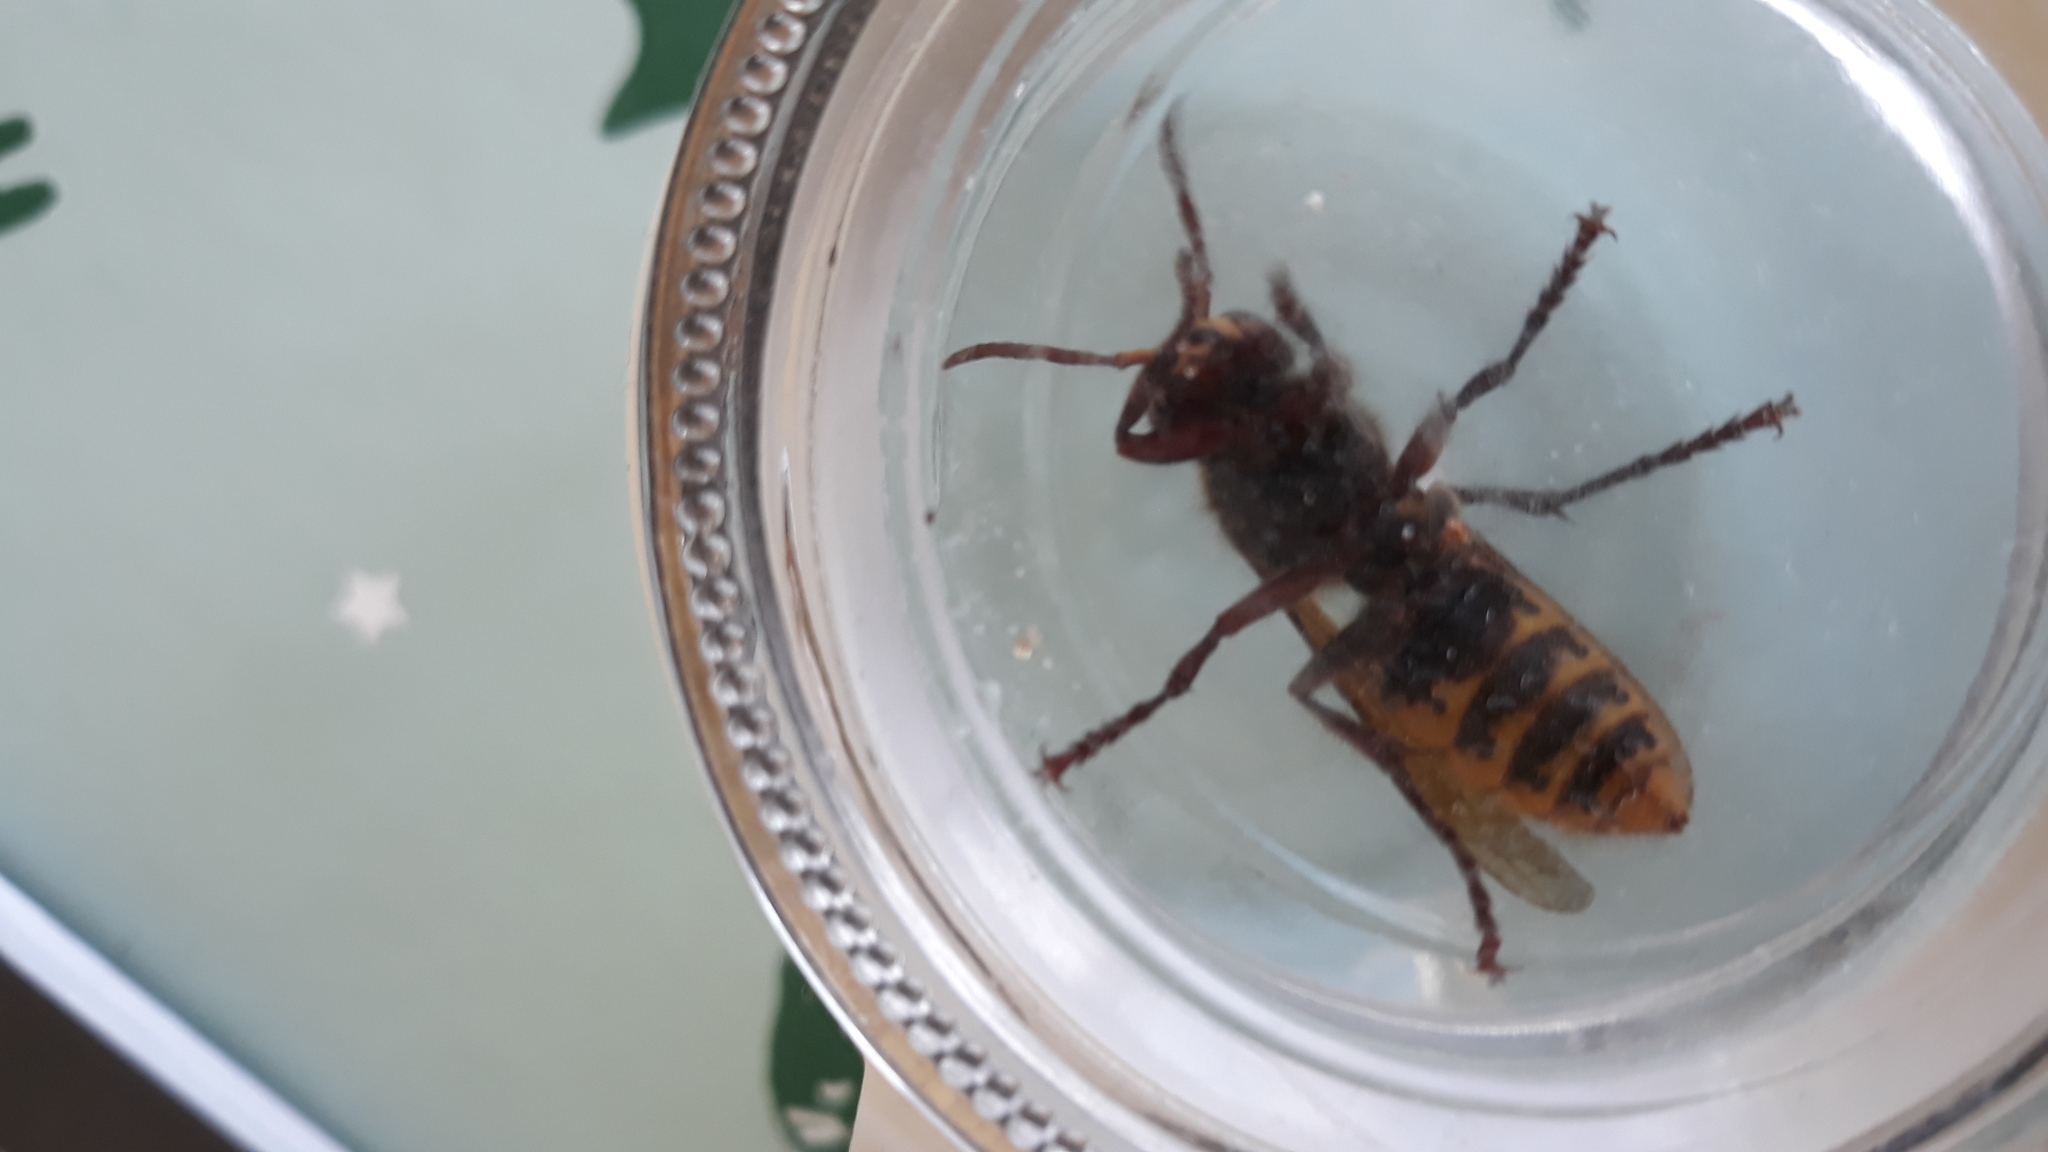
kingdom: Animalia
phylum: Arthropoda
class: Insecta
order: Hymenoptera
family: Vespidae
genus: Vespa
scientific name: Vespa crabro
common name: Hornet
